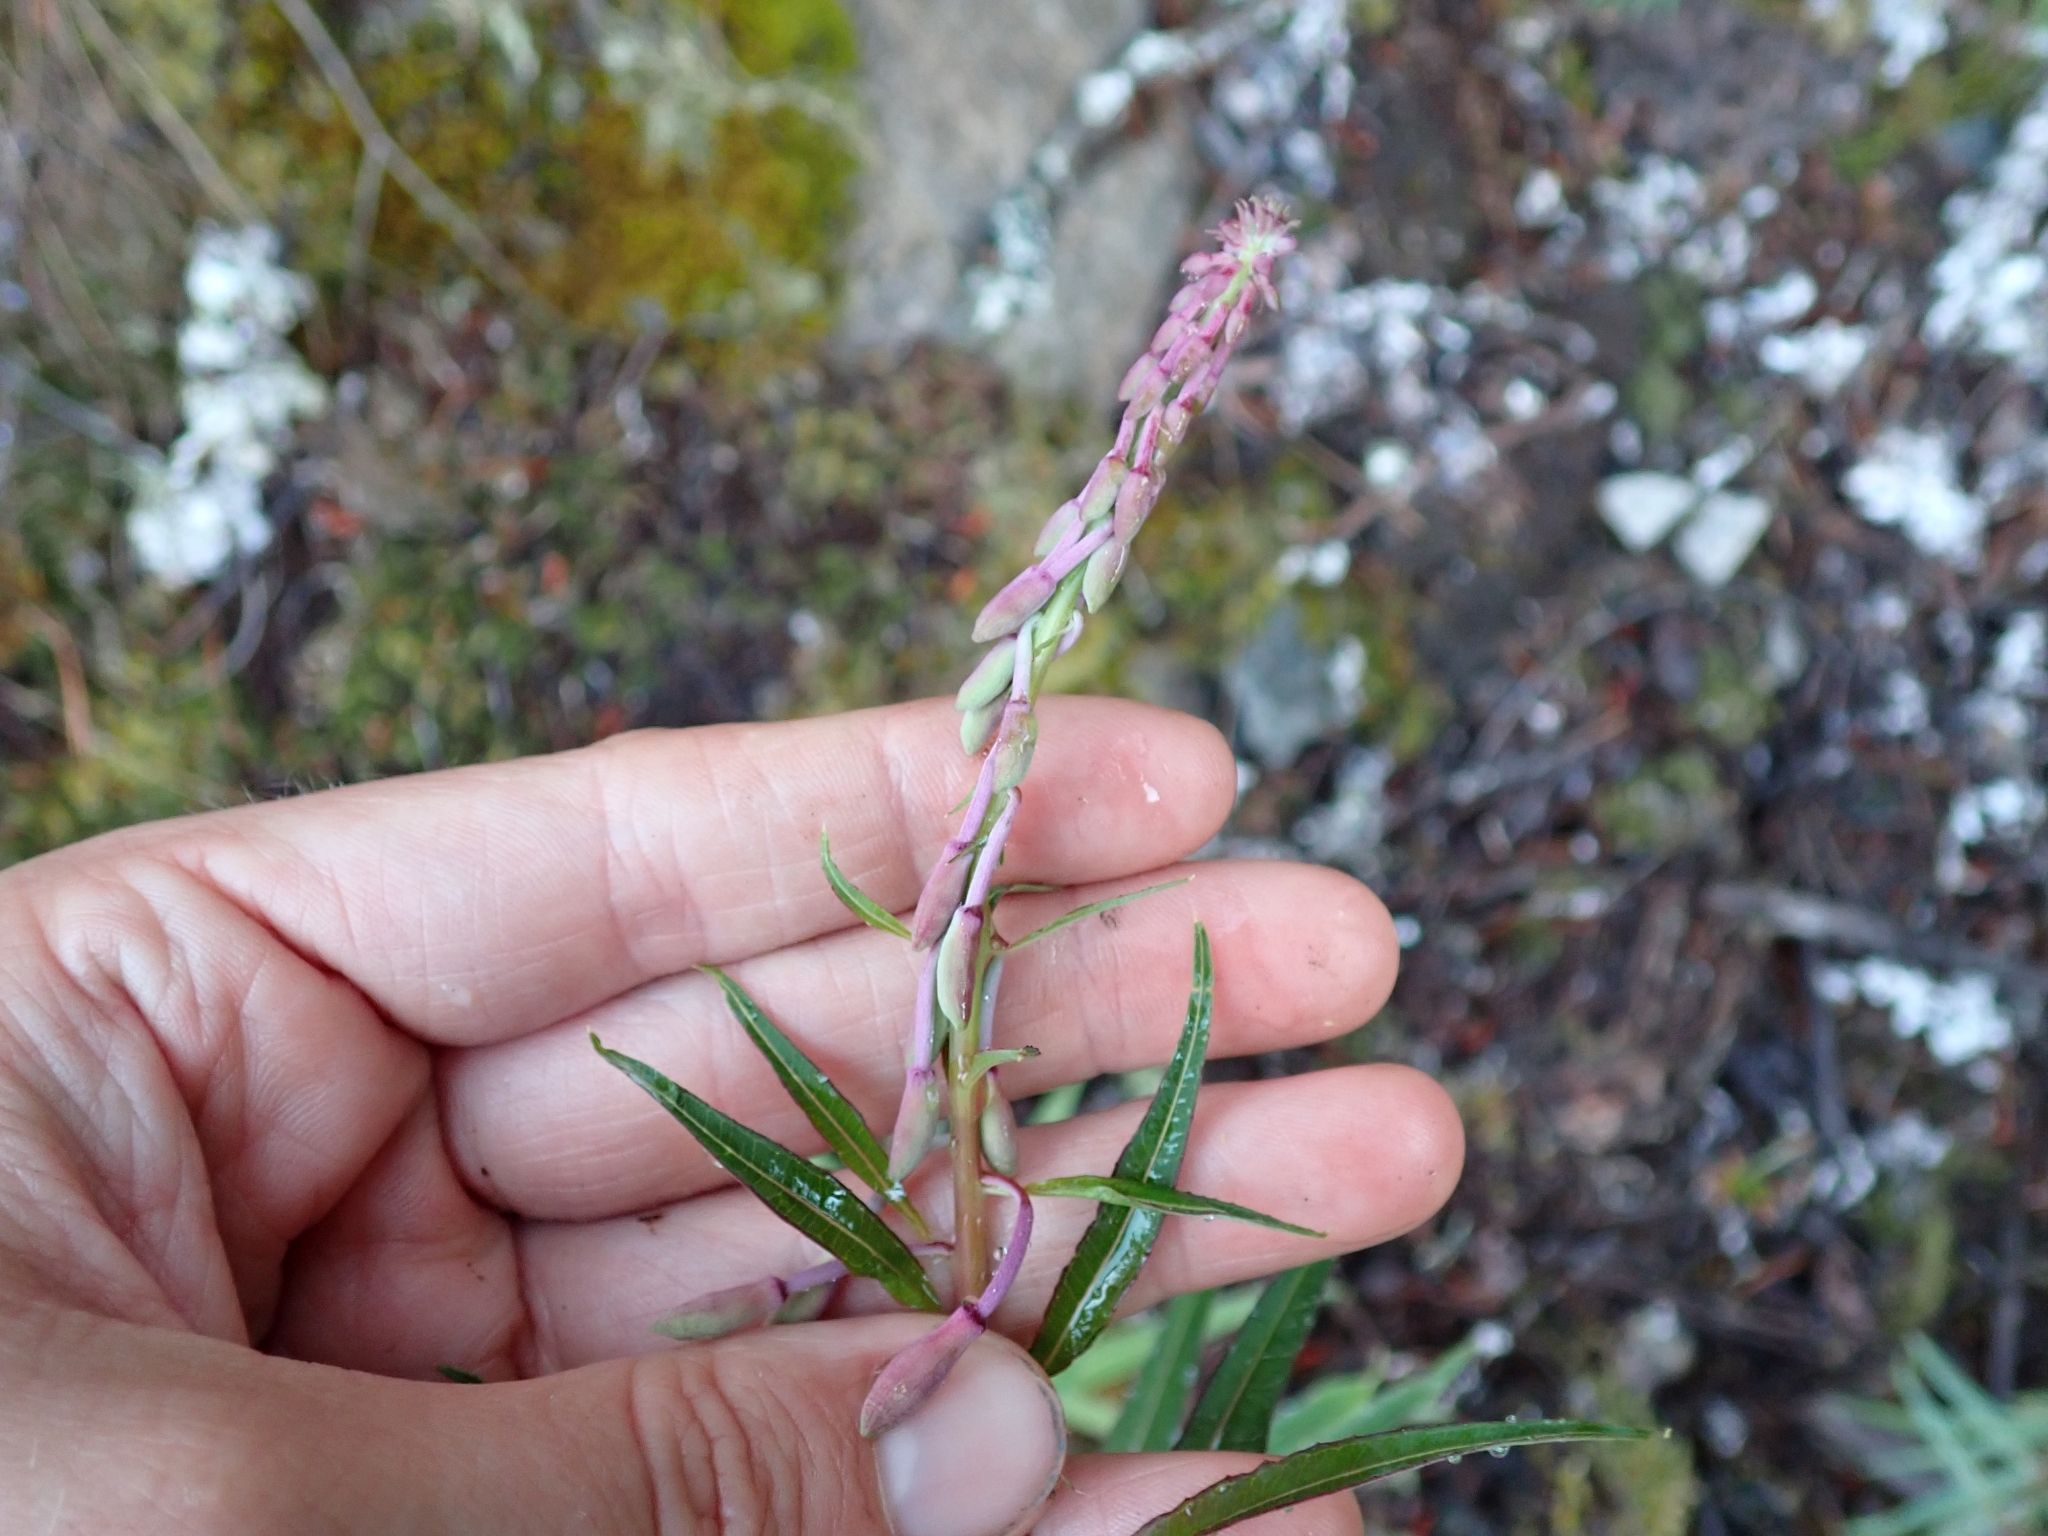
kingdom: Plantae
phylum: Tracheophyta
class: Magnoliopsida
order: Myrtales
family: Onagraceae
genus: Chamaenerion
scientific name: Chamaenerion angustifolium
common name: Fireweed
